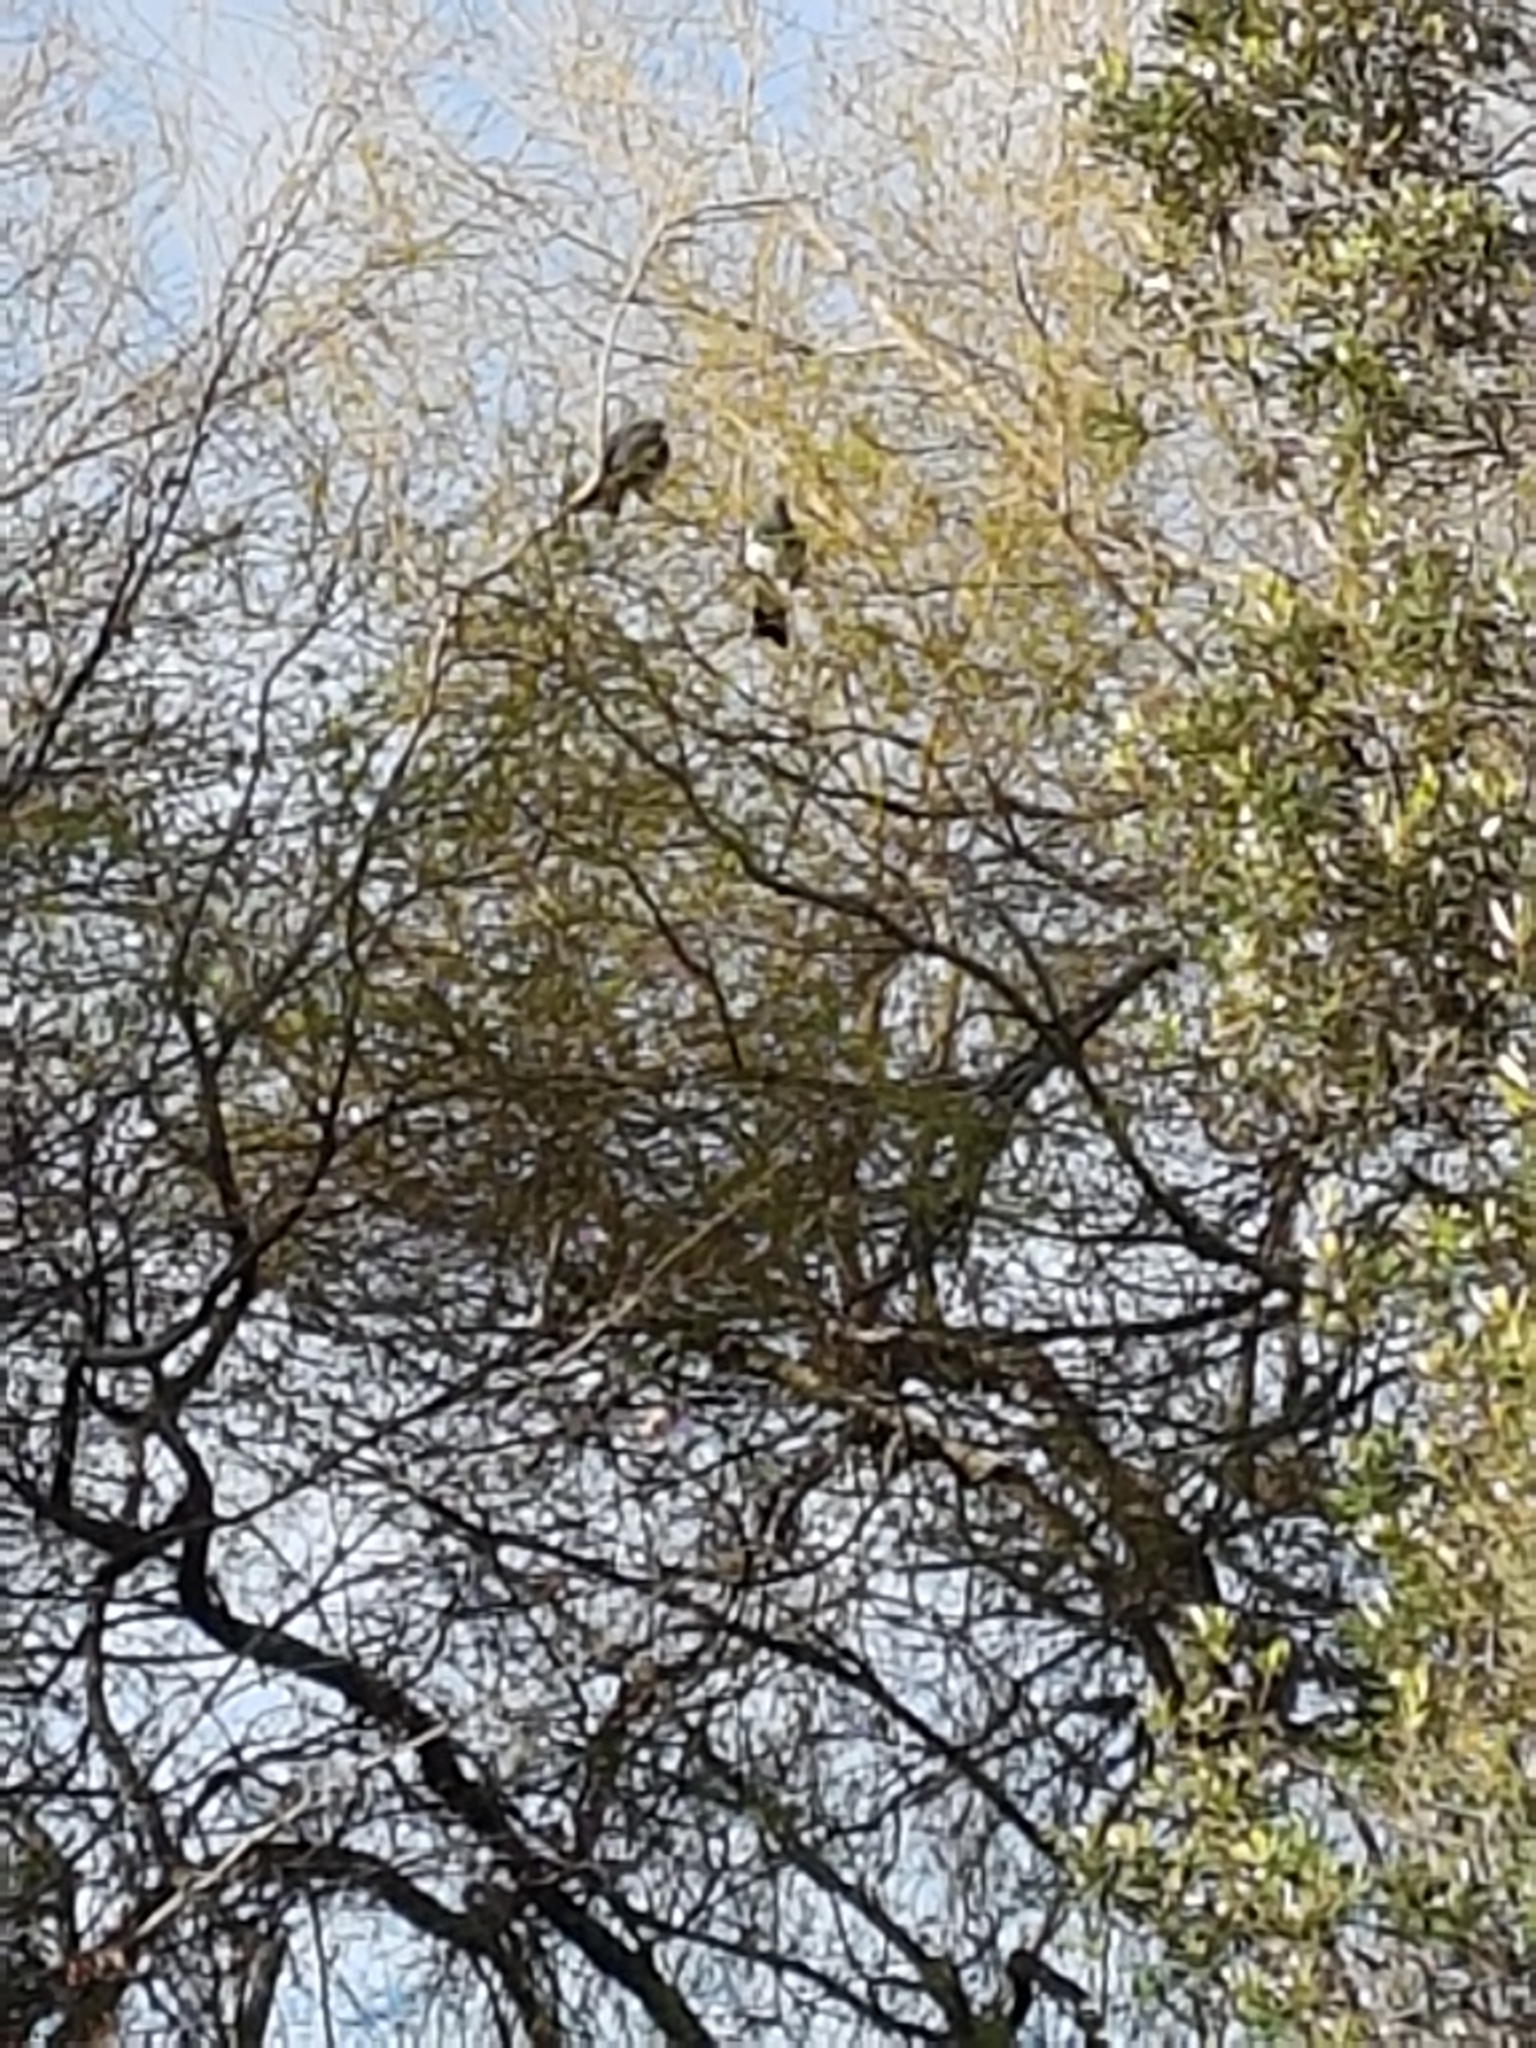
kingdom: Animalia
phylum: Chordata
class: Aves
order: Columbiformes
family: Columbidae
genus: Hemiphaga
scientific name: Hemiphaga novaeseelandiae
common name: New zealand pigeon
